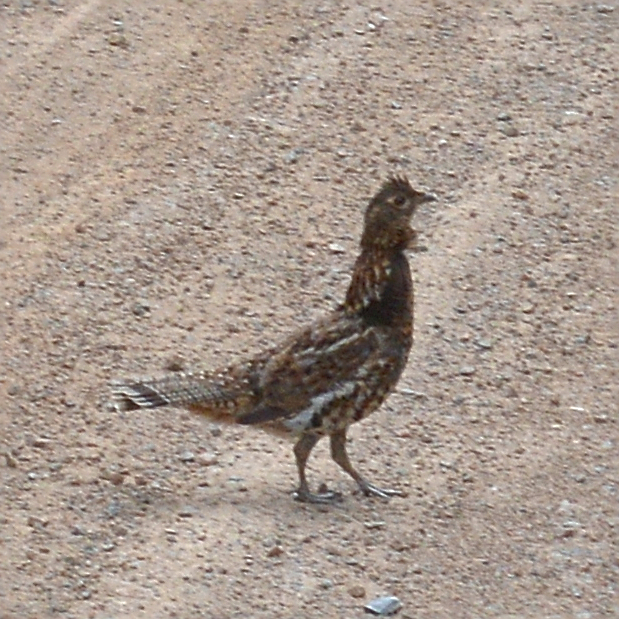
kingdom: Animalia
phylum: Chordata
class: Aves
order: Galliformes
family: Phasianidae
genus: Bonasa
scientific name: Bonasa umbellus
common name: Ruffed grouse
